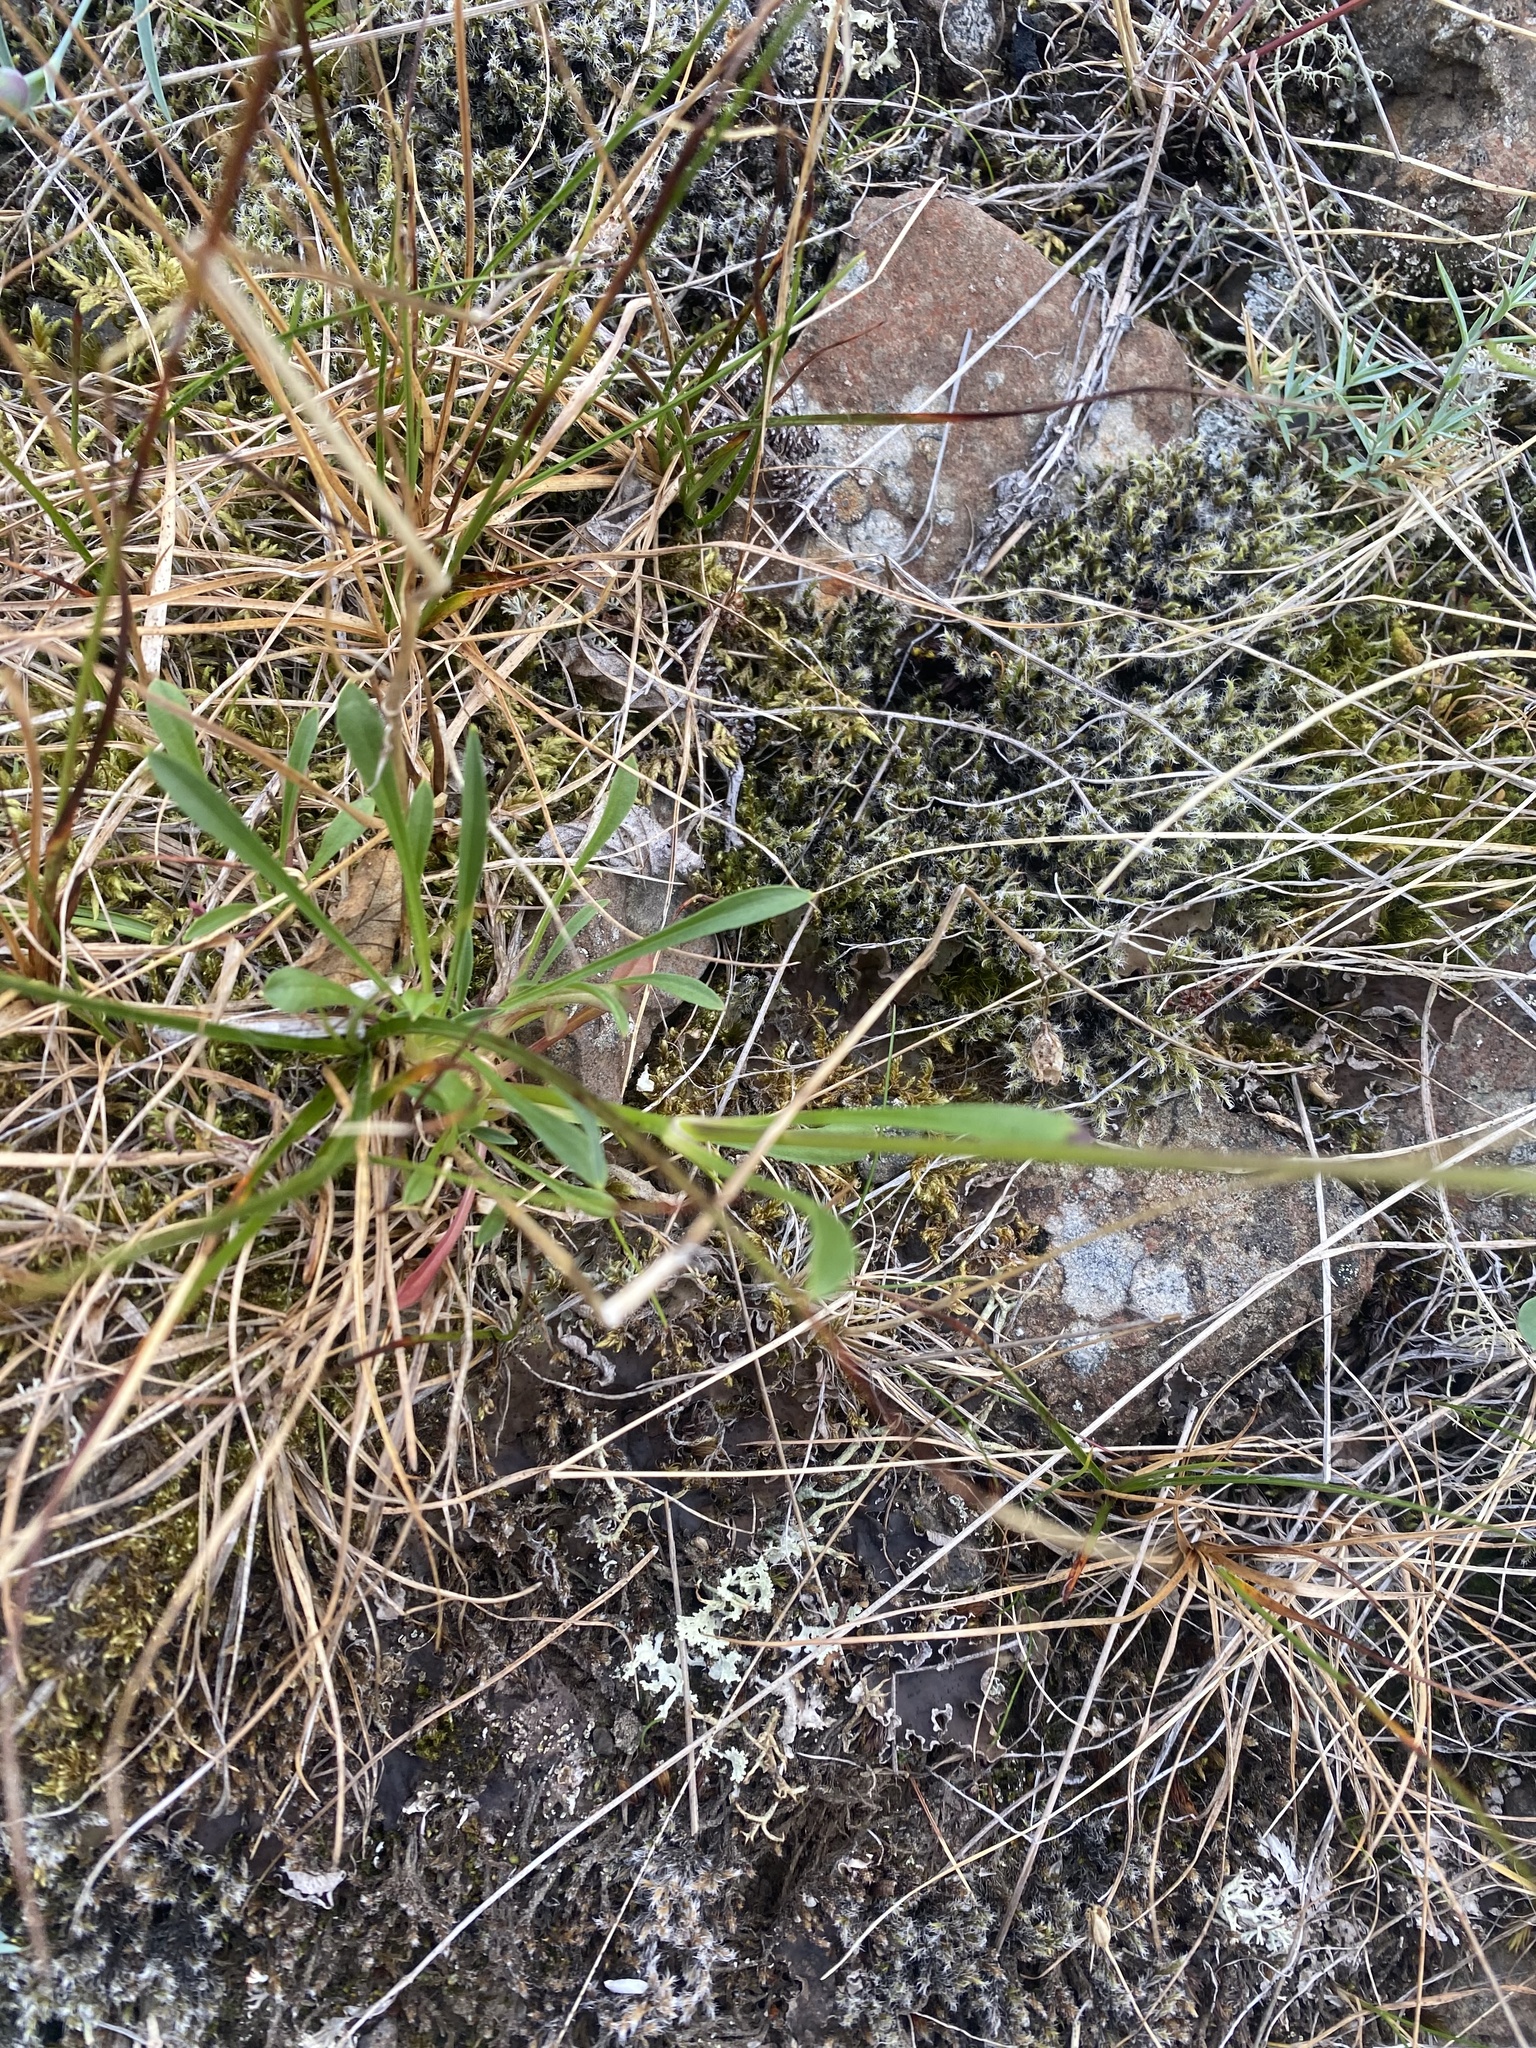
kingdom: Plantae
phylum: Tracheophyta
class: Magnoliopsida
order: Caryophyllales
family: Caryophyllaceae
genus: Silene
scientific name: Silene chamarensis
